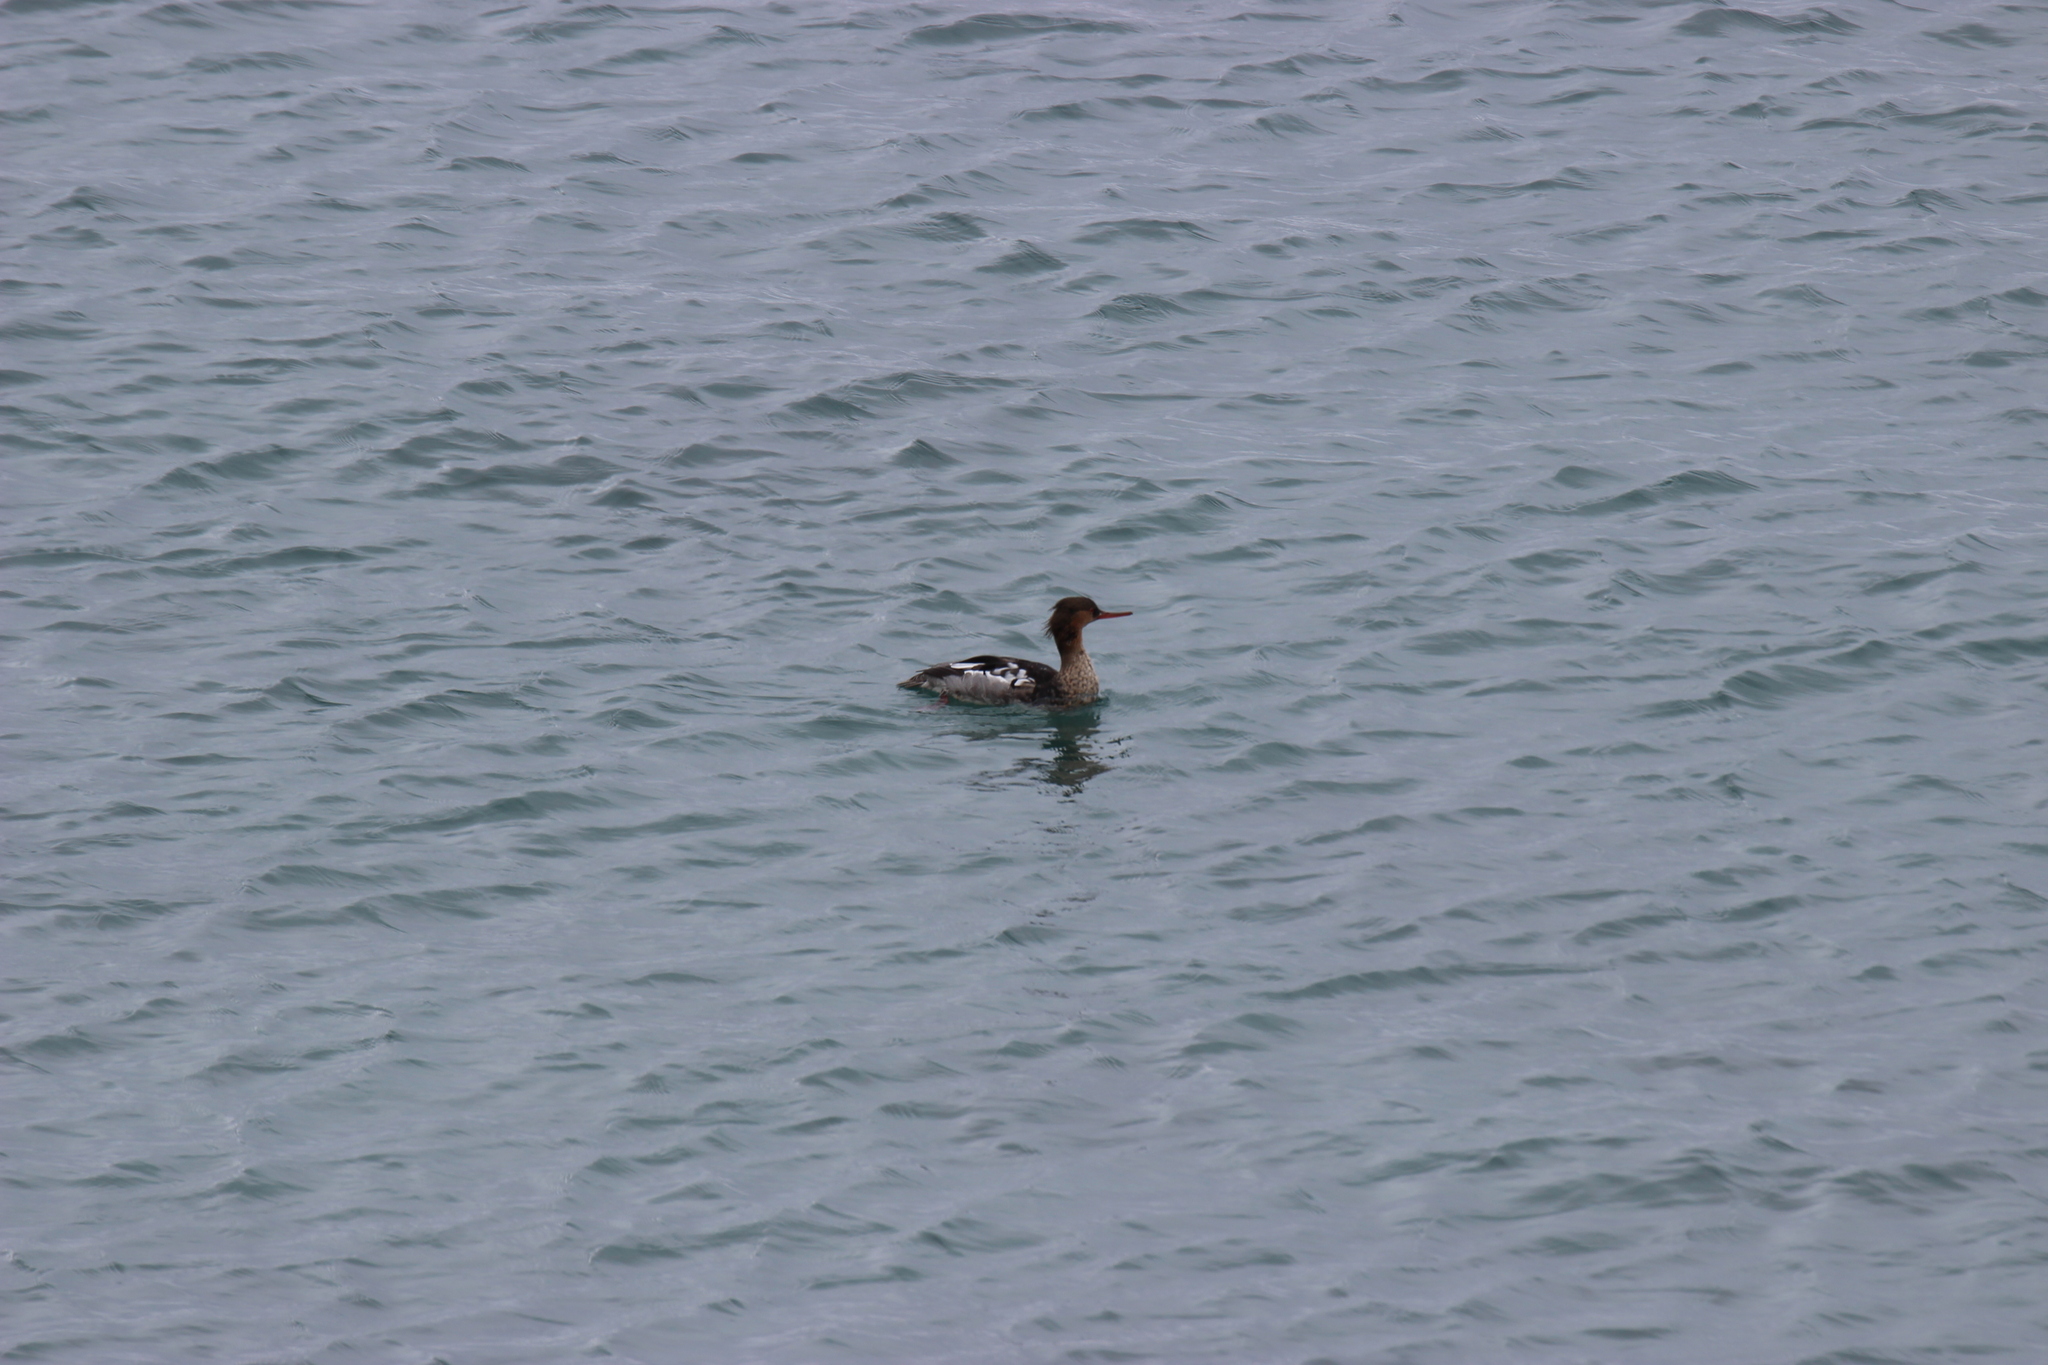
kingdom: Animalia
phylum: Chordata
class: Aves
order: Anseriformes
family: Anatidae
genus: Mergus
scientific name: Mergus serrator
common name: Red-breasted merganser
